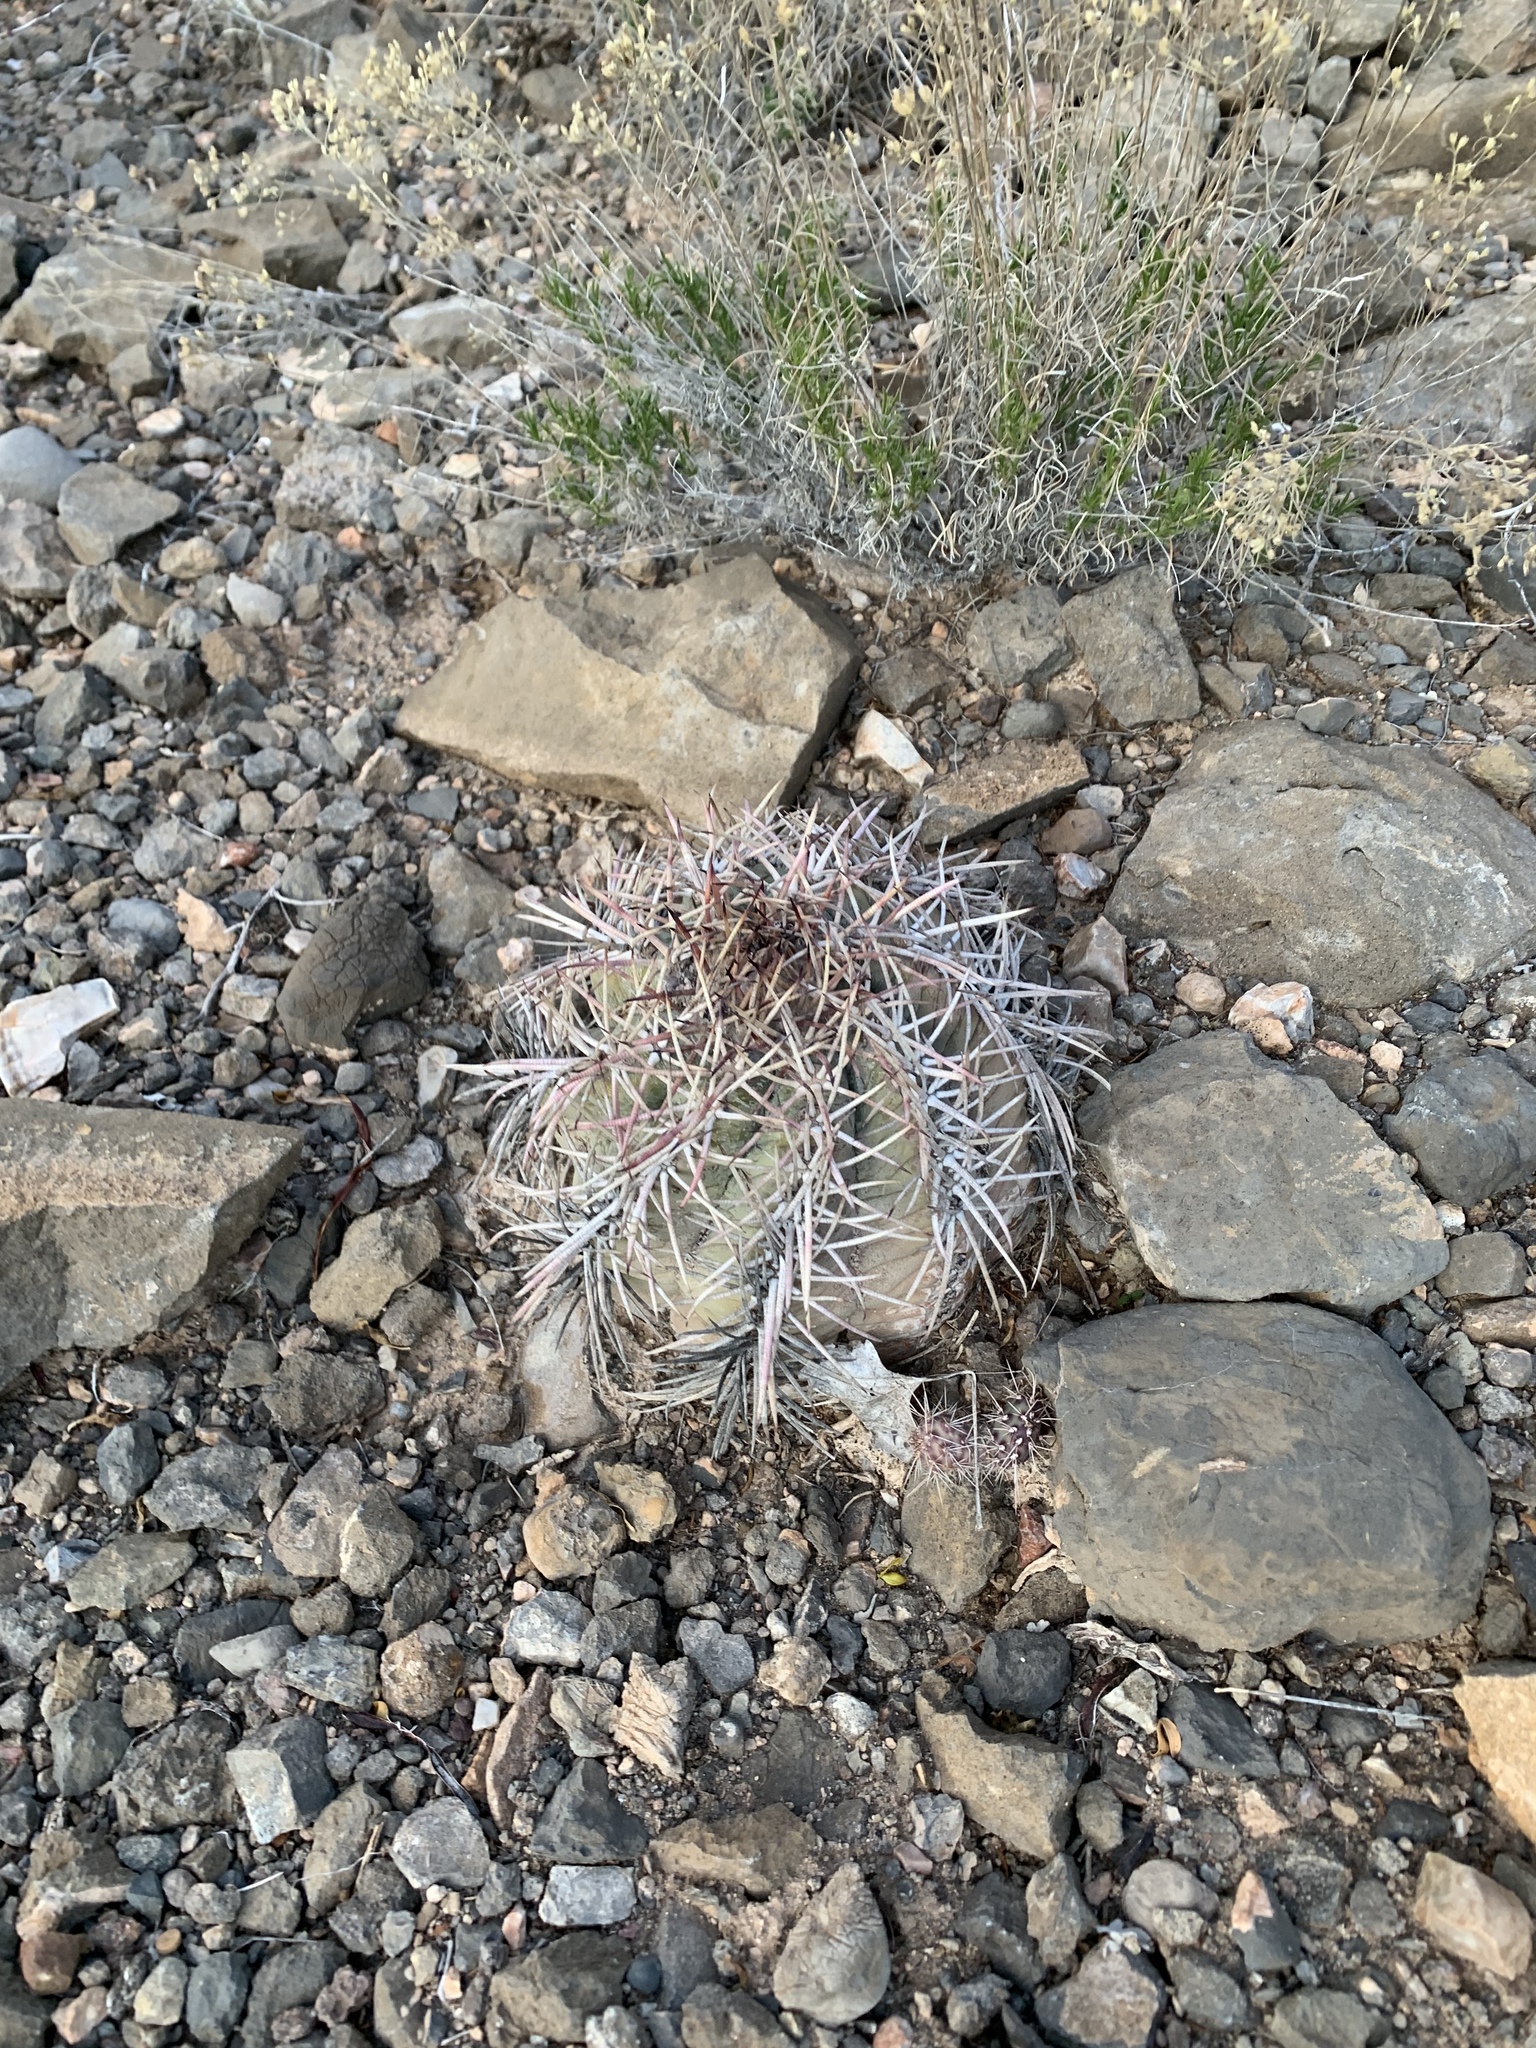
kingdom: Plantae
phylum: Tracheophyta
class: Magnoliopsida
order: Caryophyllales
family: Cactaceae
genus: Echinocactus
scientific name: Echinocactus horizonthalonius
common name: Devilshead
